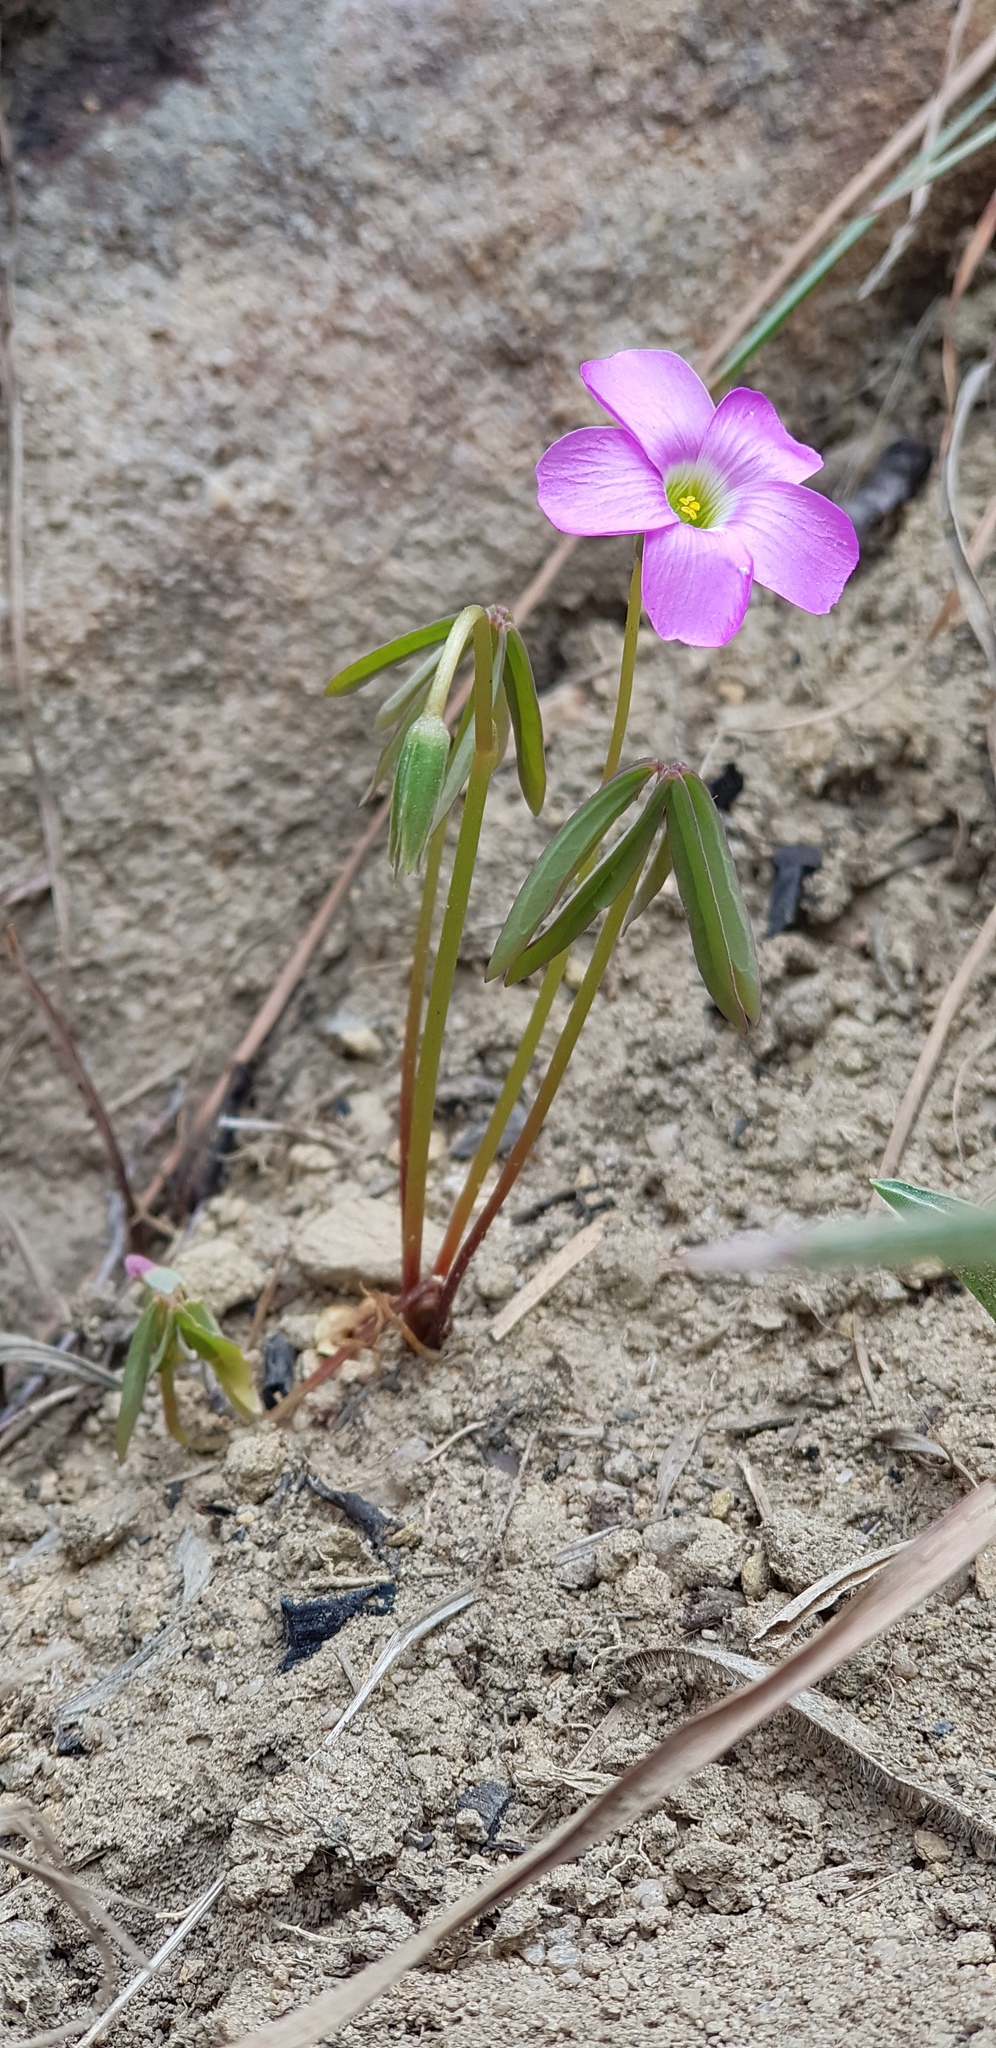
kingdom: Plantae
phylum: Tracheophyta
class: Magnoliopsida
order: Oxalidales
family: Oxalidaceae
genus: Oxalis
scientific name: Oxalis smithiana
